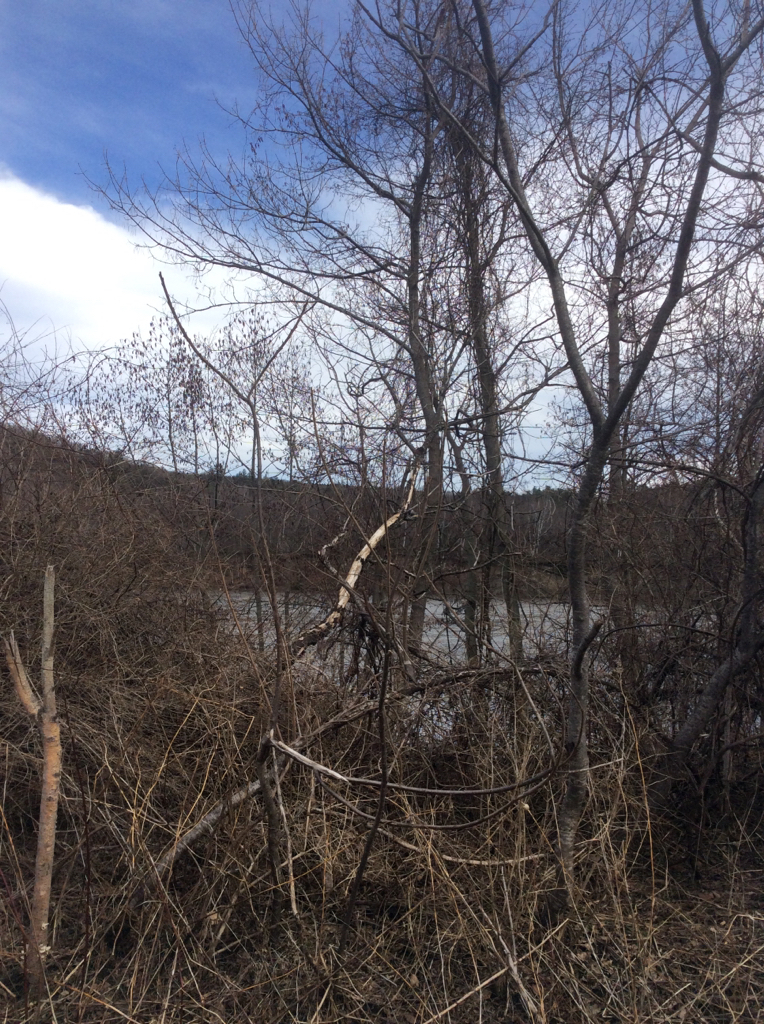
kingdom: Plantae
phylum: Tracheophyta
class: Magnoliopsida
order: Fagales
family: Betulaceae
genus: Alnus
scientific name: Alnus glutinosa
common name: Black alder
